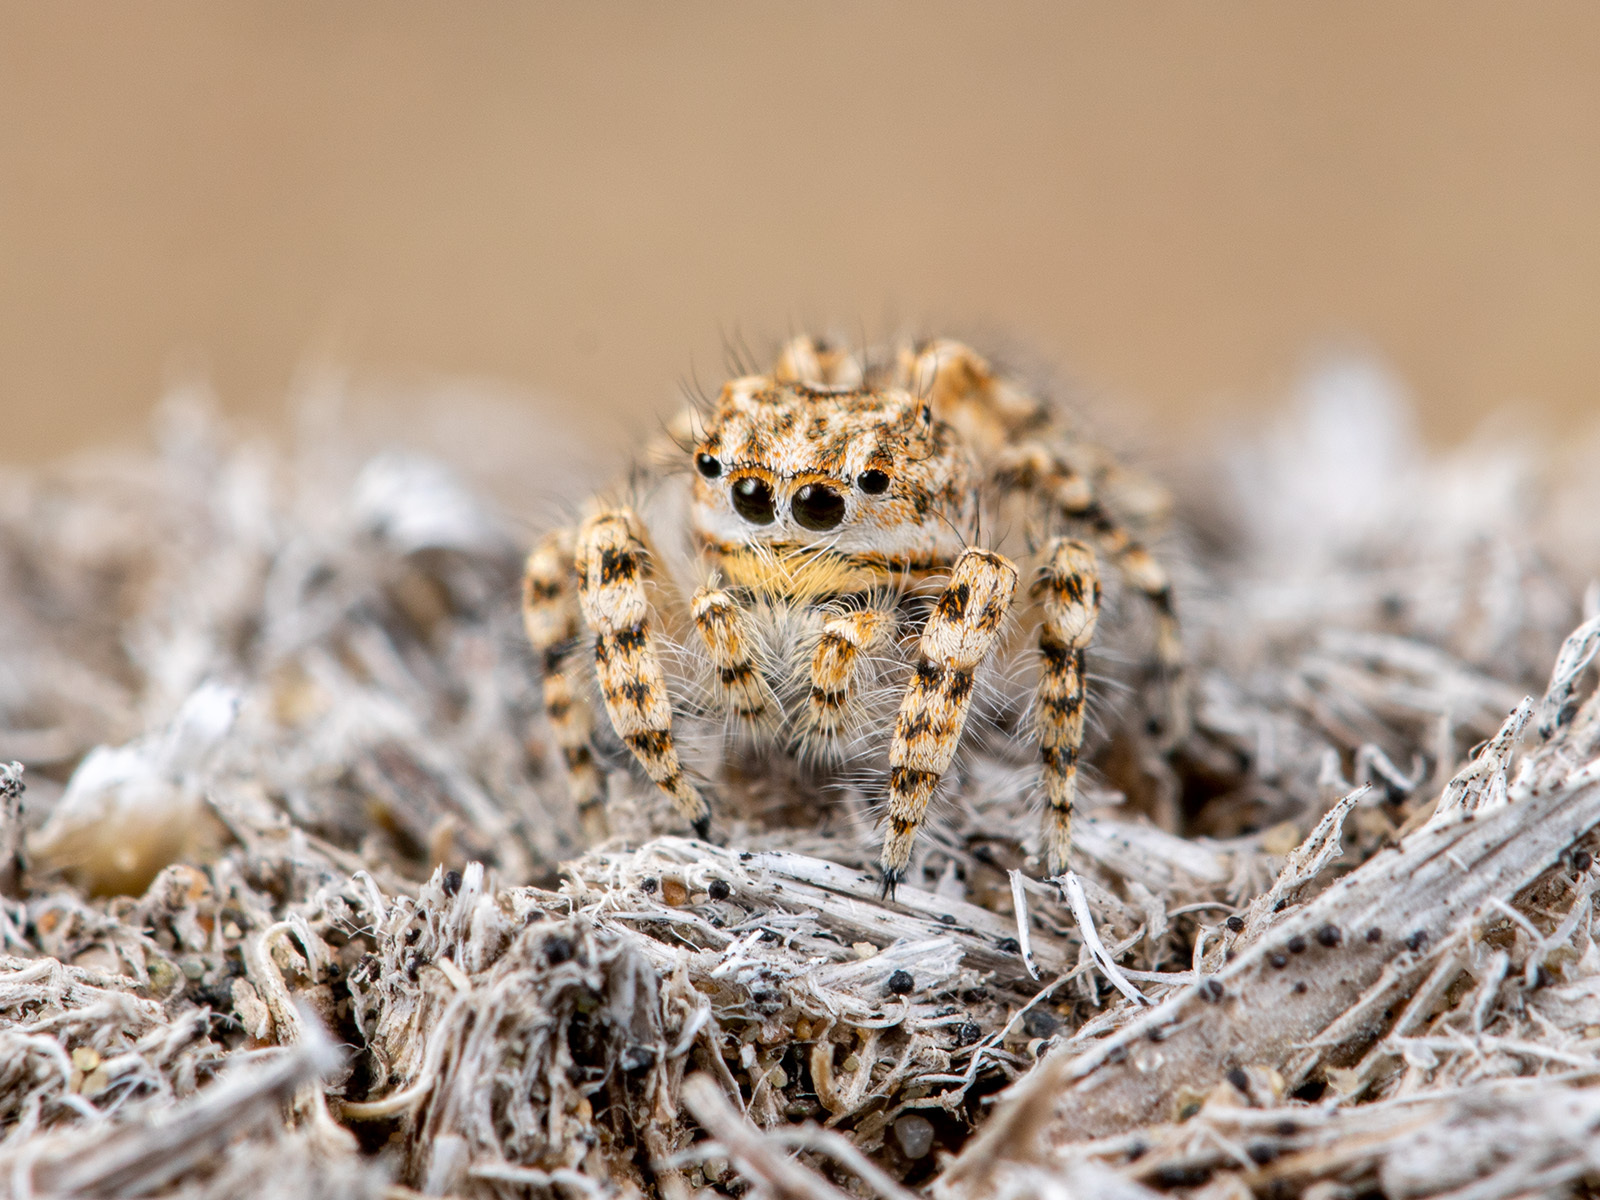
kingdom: Animalia
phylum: Arthropoda
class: Arachnida
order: Araneae
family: Salticidae
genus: Yllenus
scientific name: Yllenus turkestanicus
